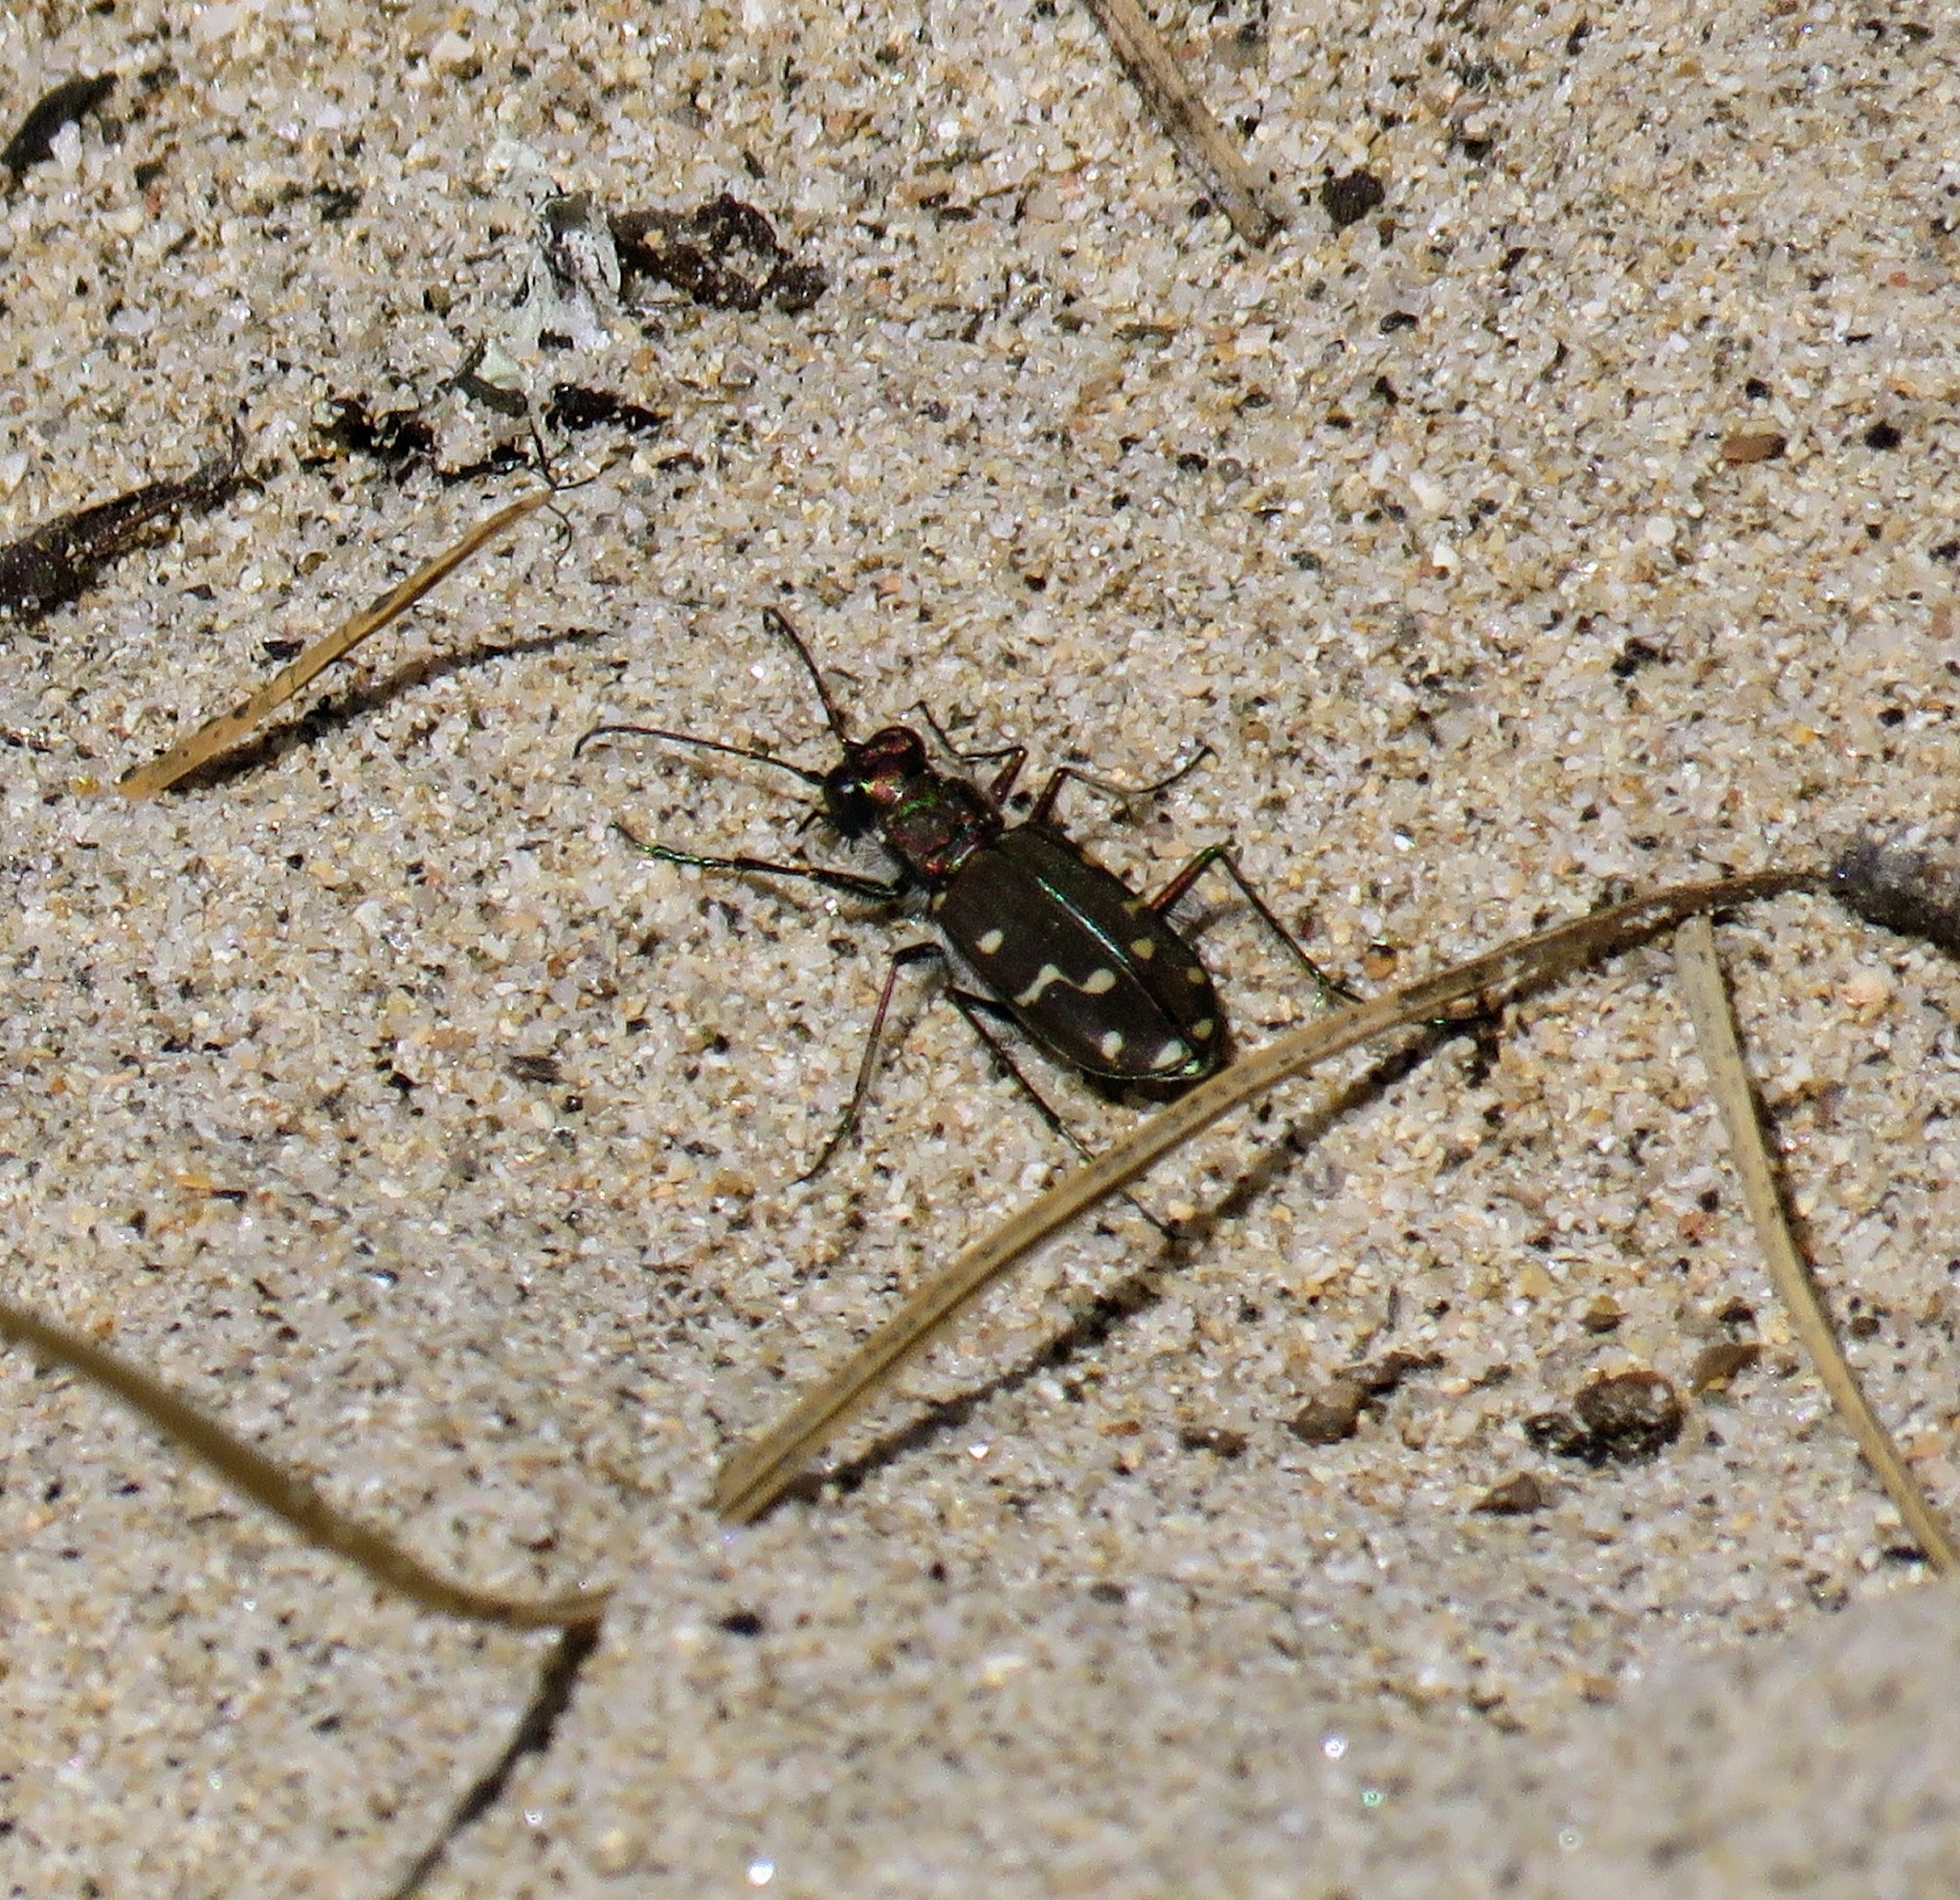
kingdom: Animalia
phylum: Arthropoda
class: Insecta
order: Coleoptera
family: Carabidae
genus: Cicindela
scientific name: Cicindela oregona
